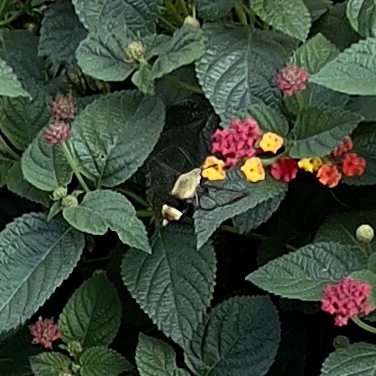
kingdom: Animalia
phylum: Arthropoda
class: Insecta
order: Lepidoptera
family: Sphingidae
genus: Hemaris
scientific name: Hemaris diffinis
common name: Bumblebee moth
